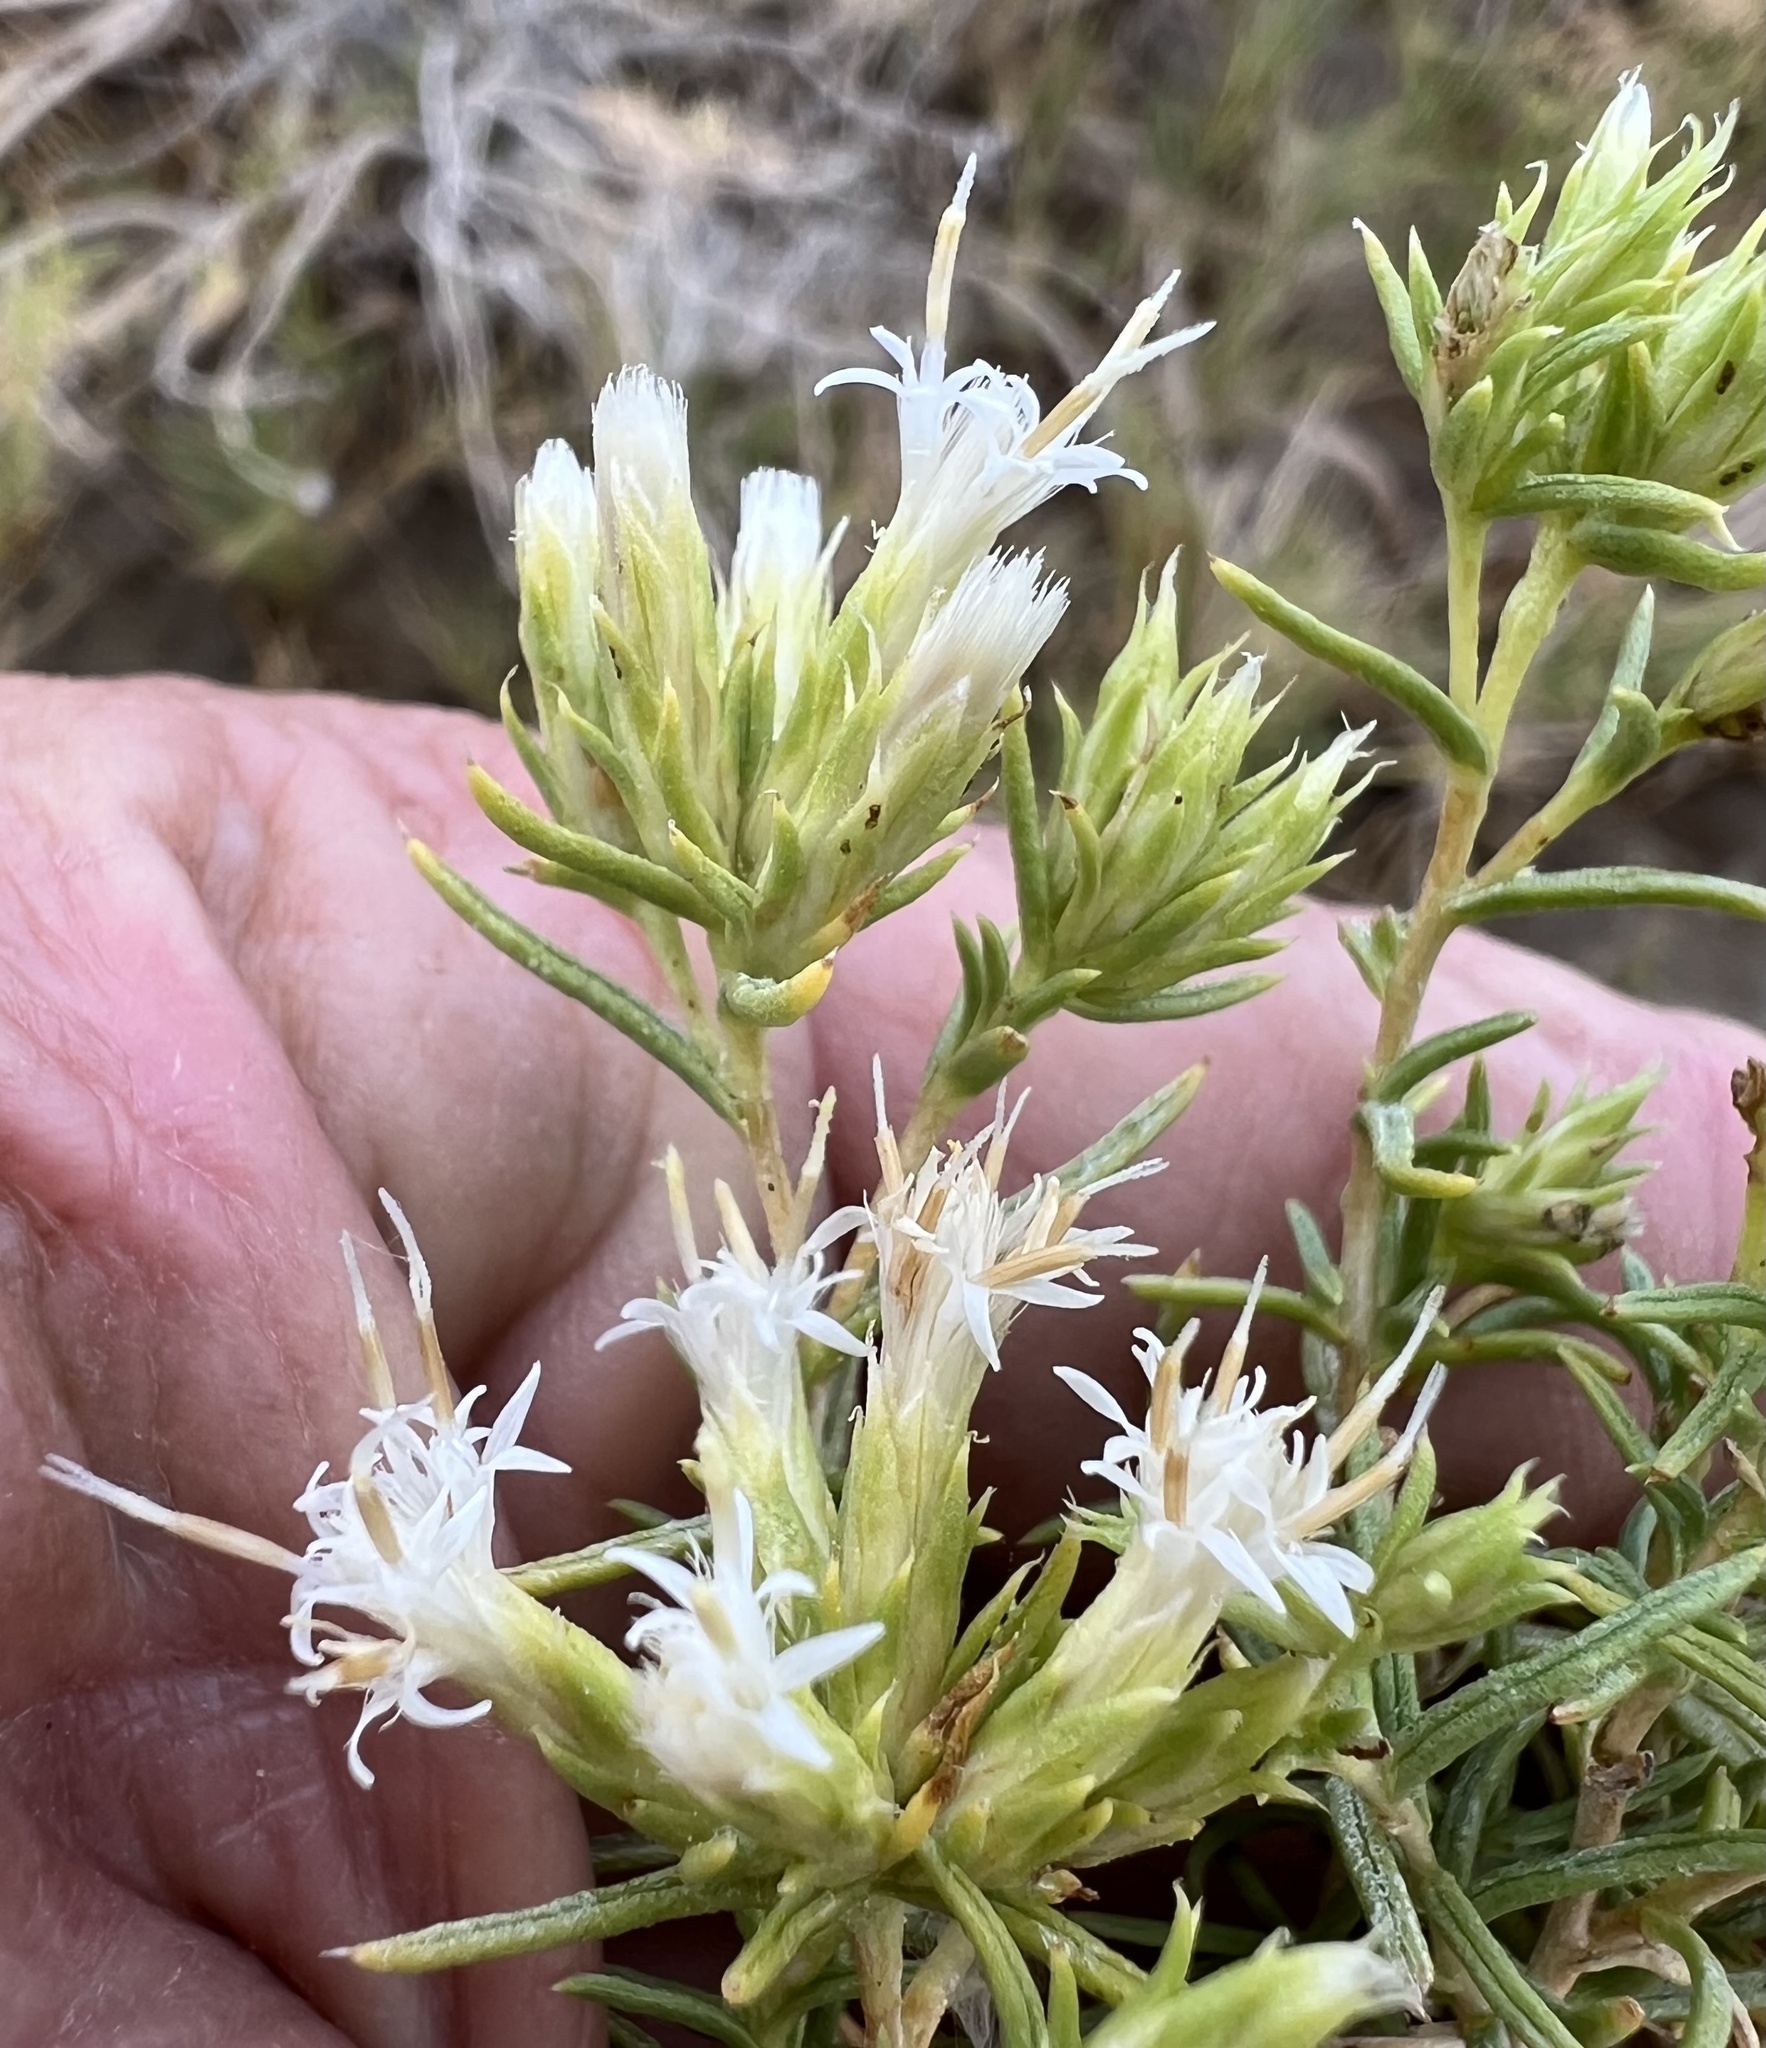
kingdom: Plantae
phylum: Tracheophyta
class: Magnoliopsida
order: Asterales
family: Asteraceae
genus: Ericameria
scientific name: Ericameria albida
